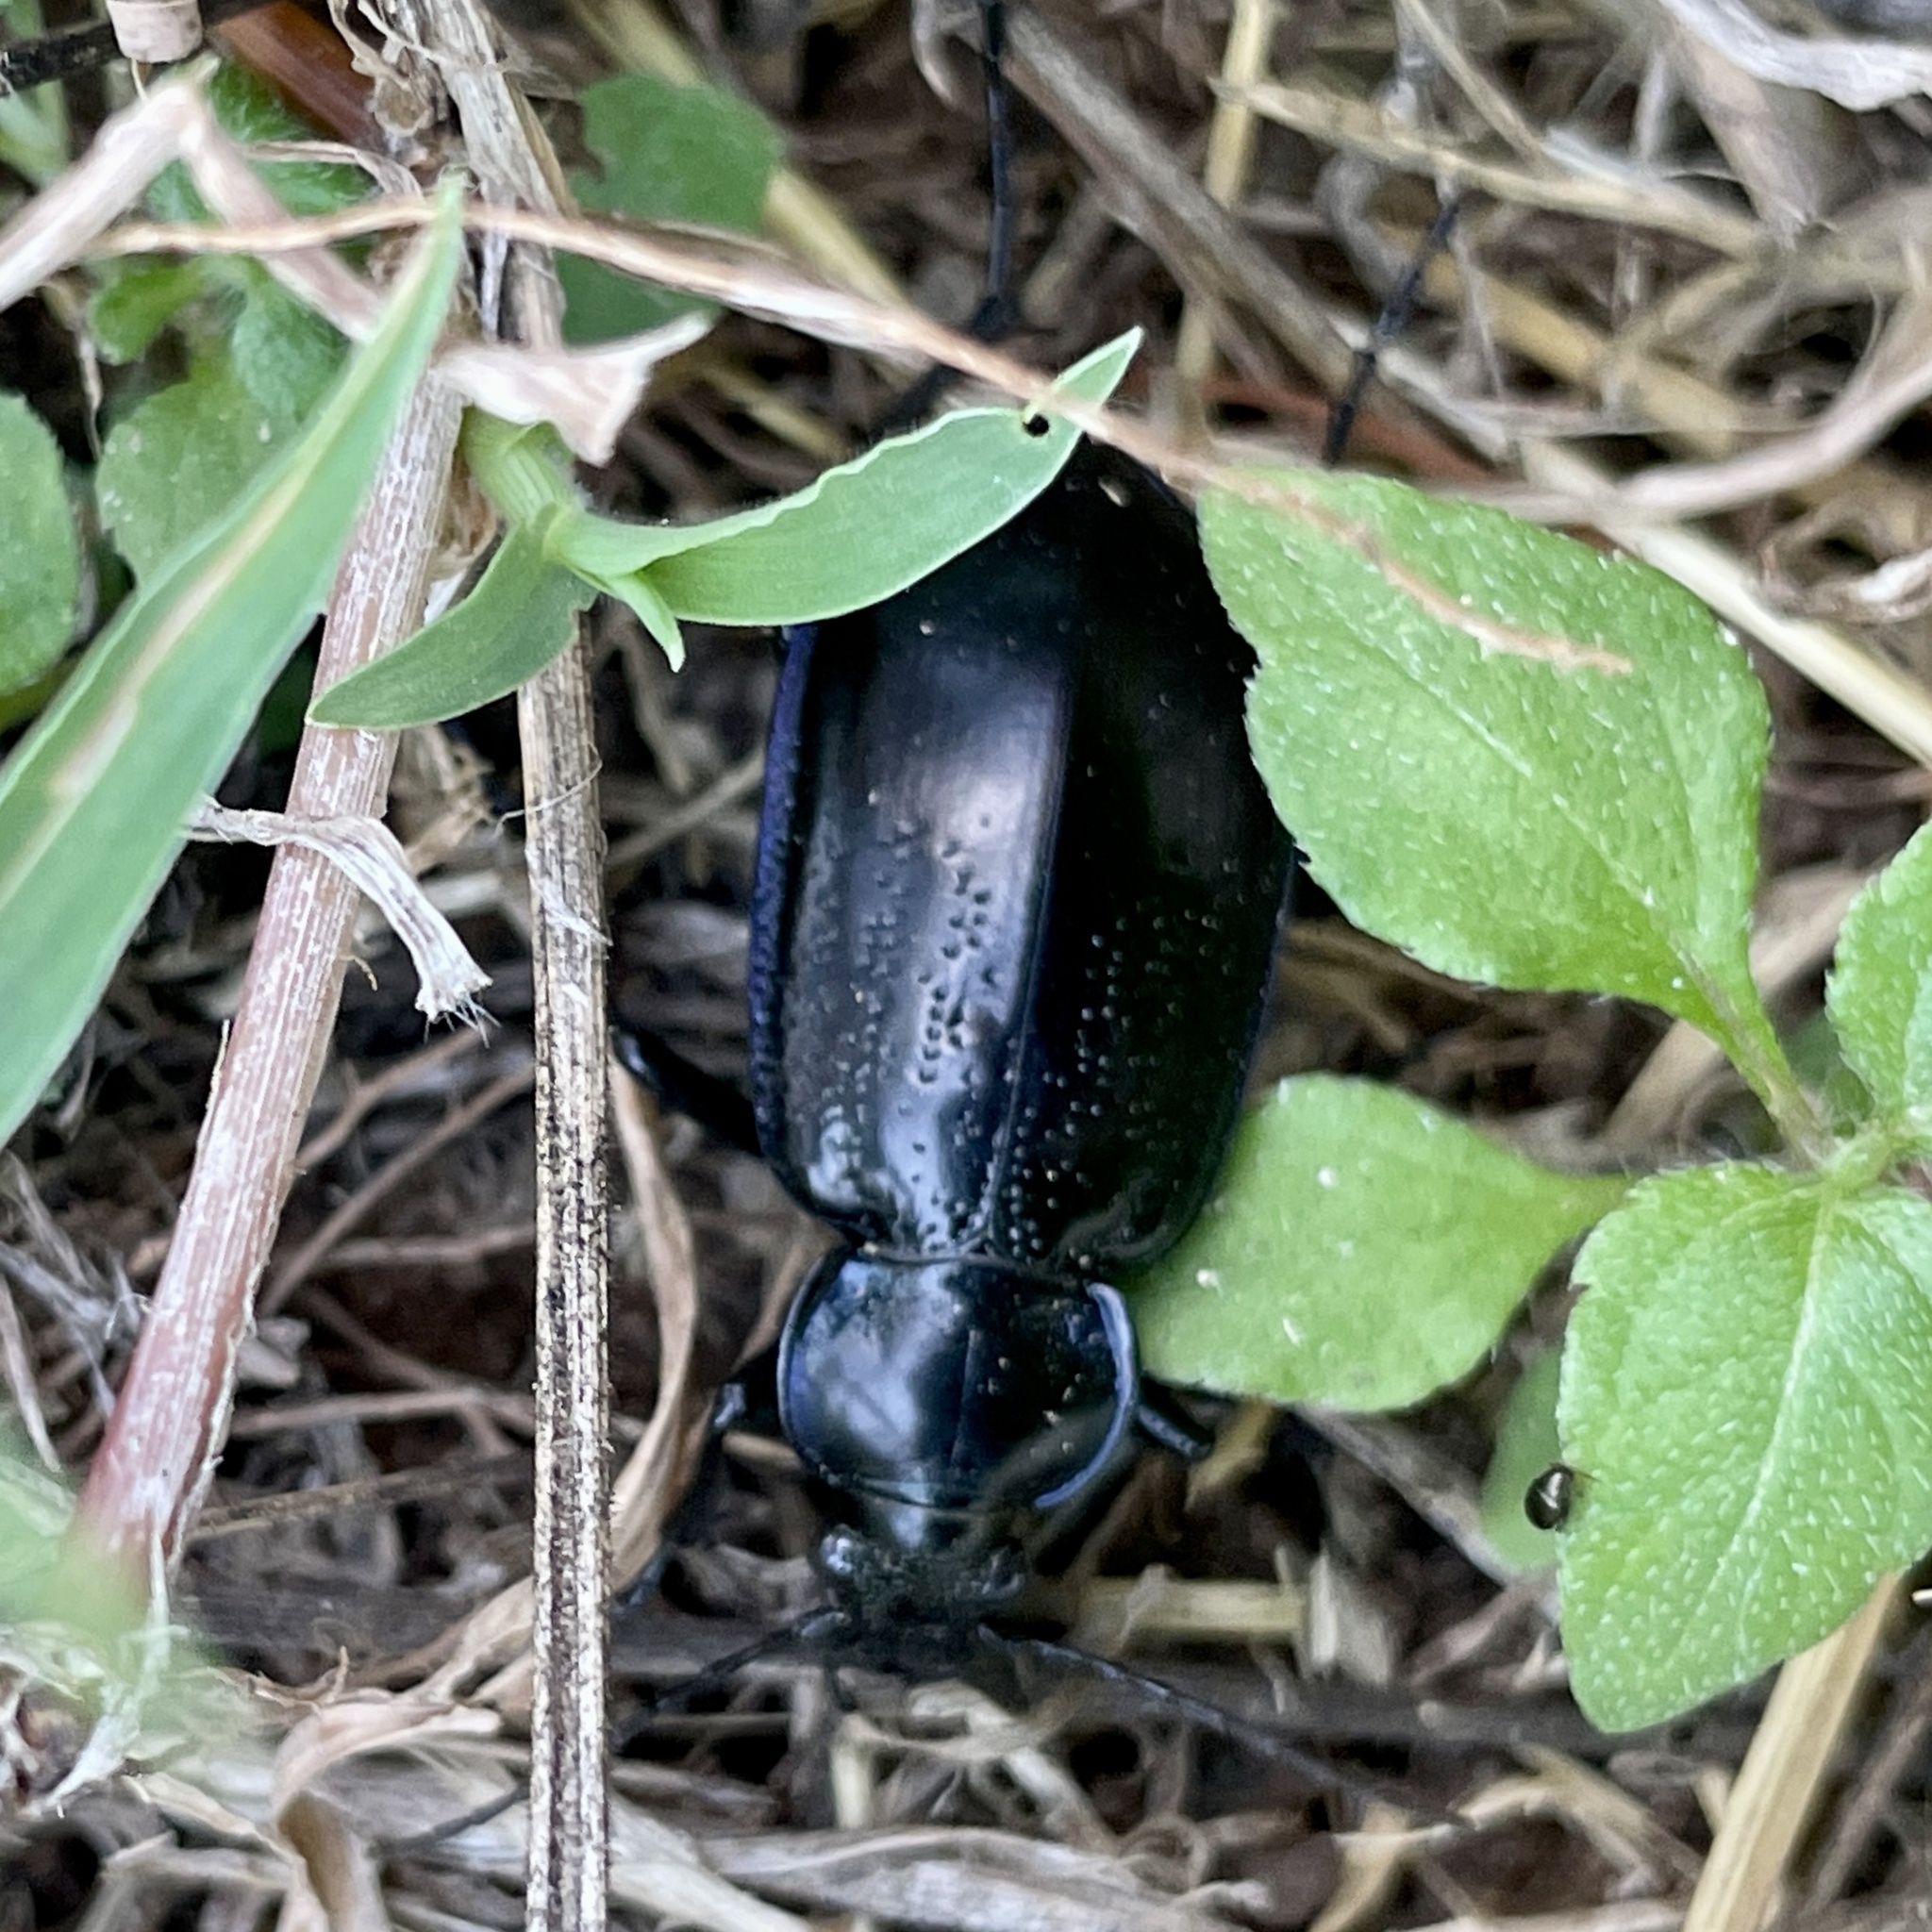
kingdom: Animalia
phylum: Arthropoda
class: Insecta
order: Coleoptera
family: Carabidae
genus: Calosoma
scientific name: Calosoma macrum
